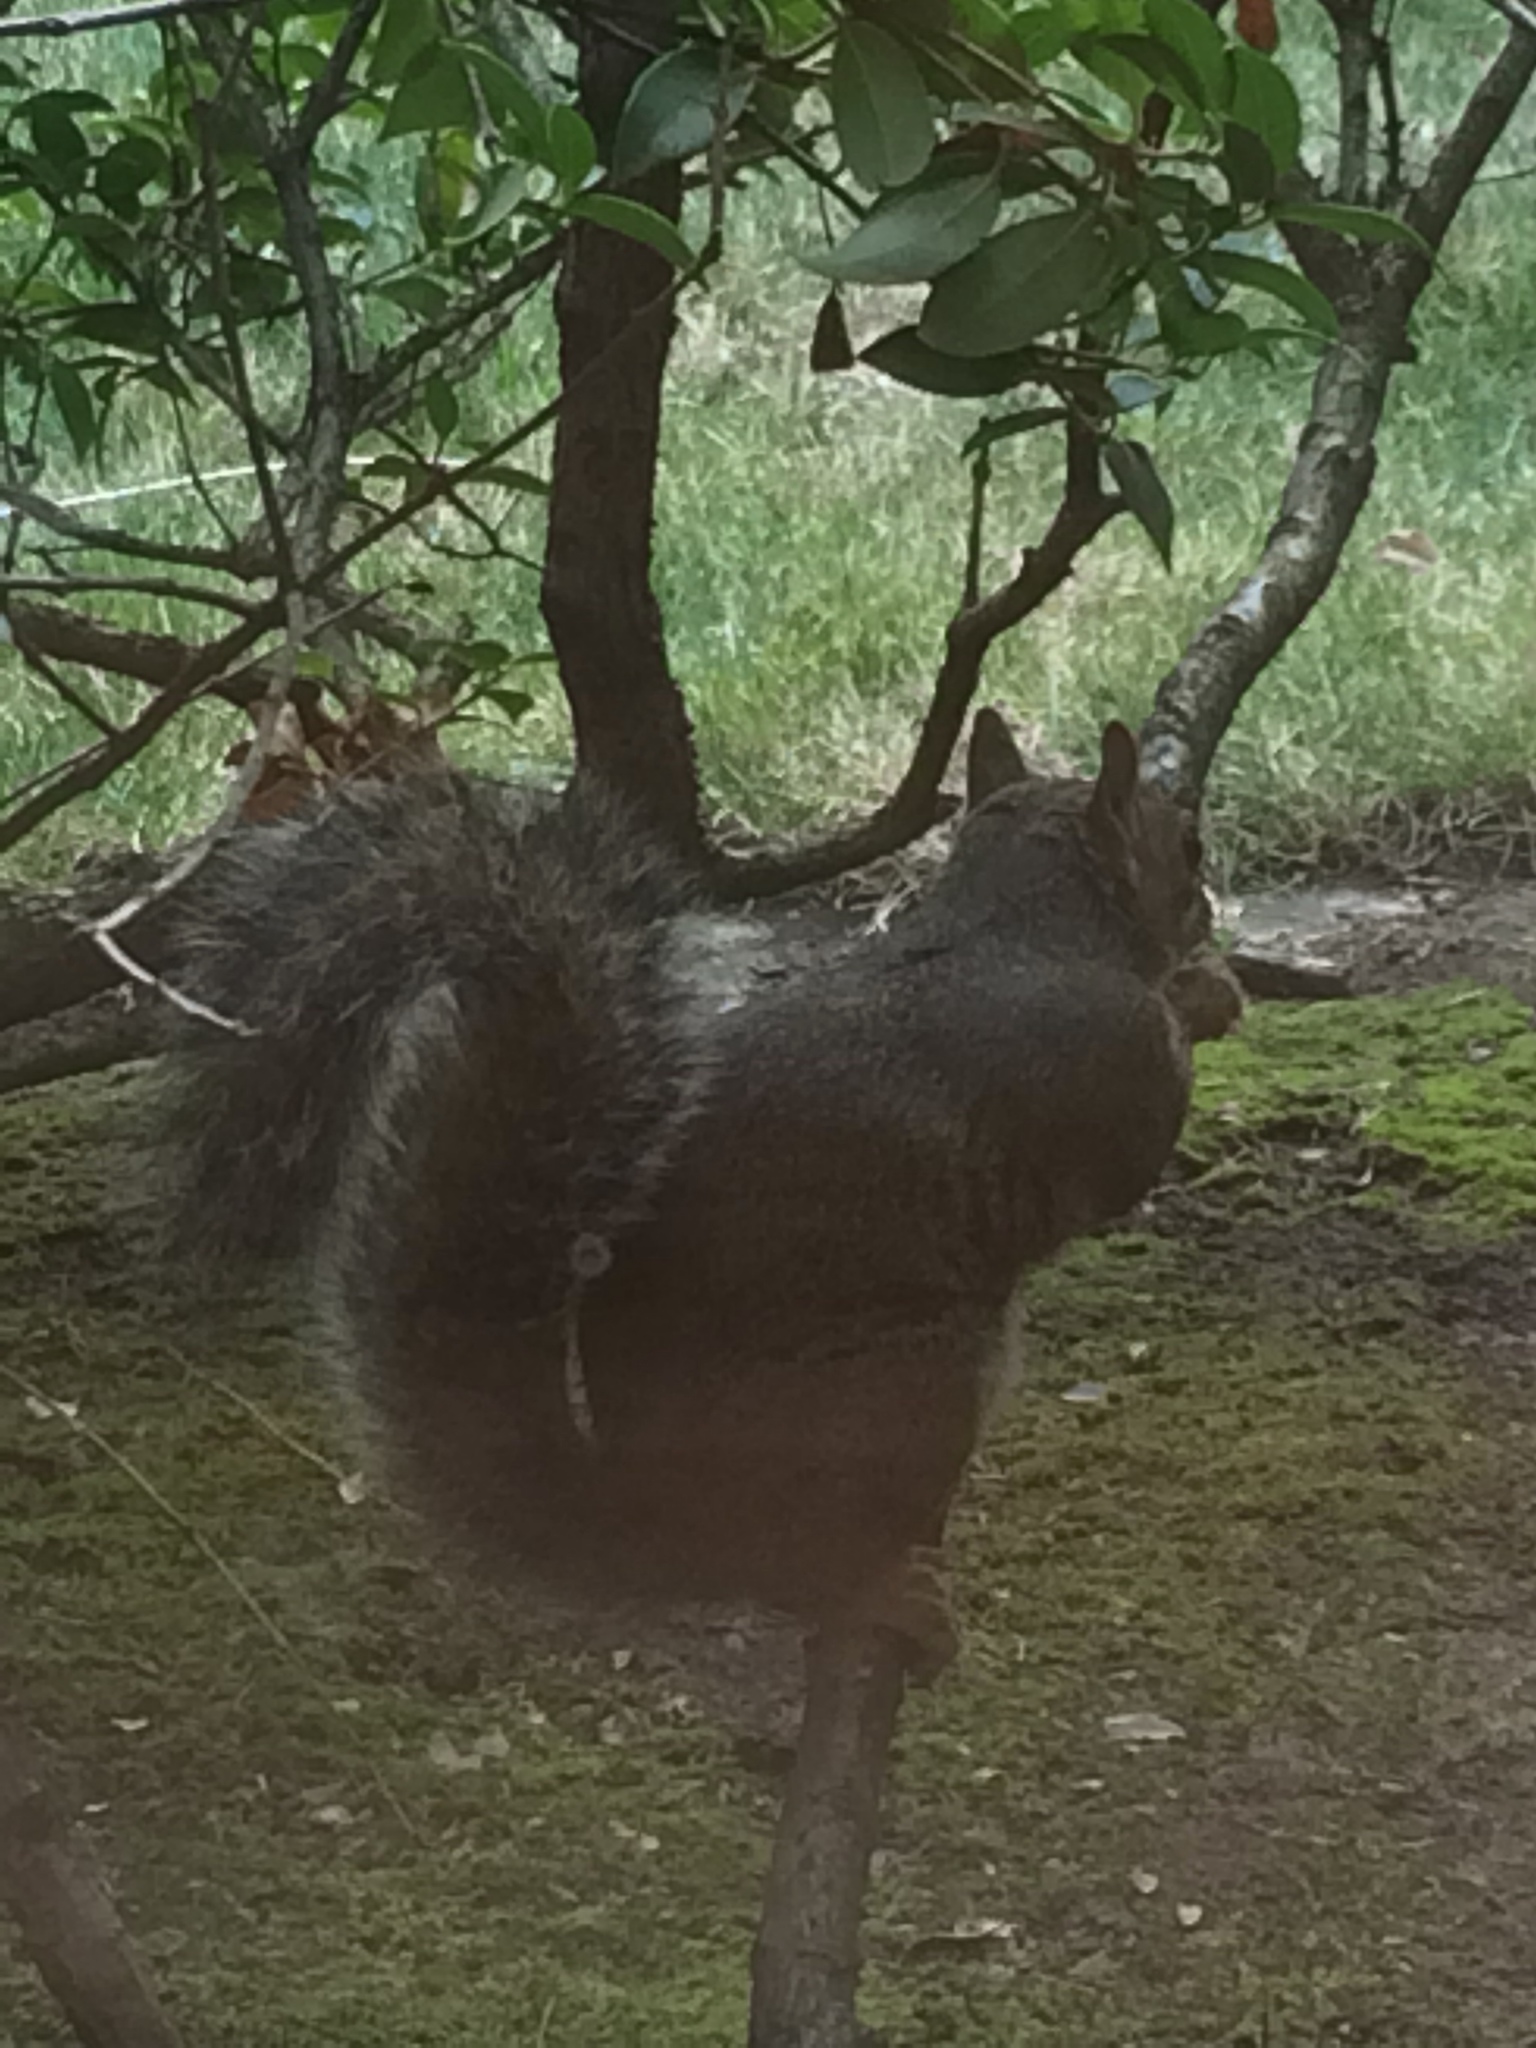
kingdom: Animalia
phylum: Chordata
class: Mammalia
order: Rodentia
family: Sciuridae
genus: Sciurus
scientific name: Sciurus carolinensis
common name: Eastern gray squirrel
